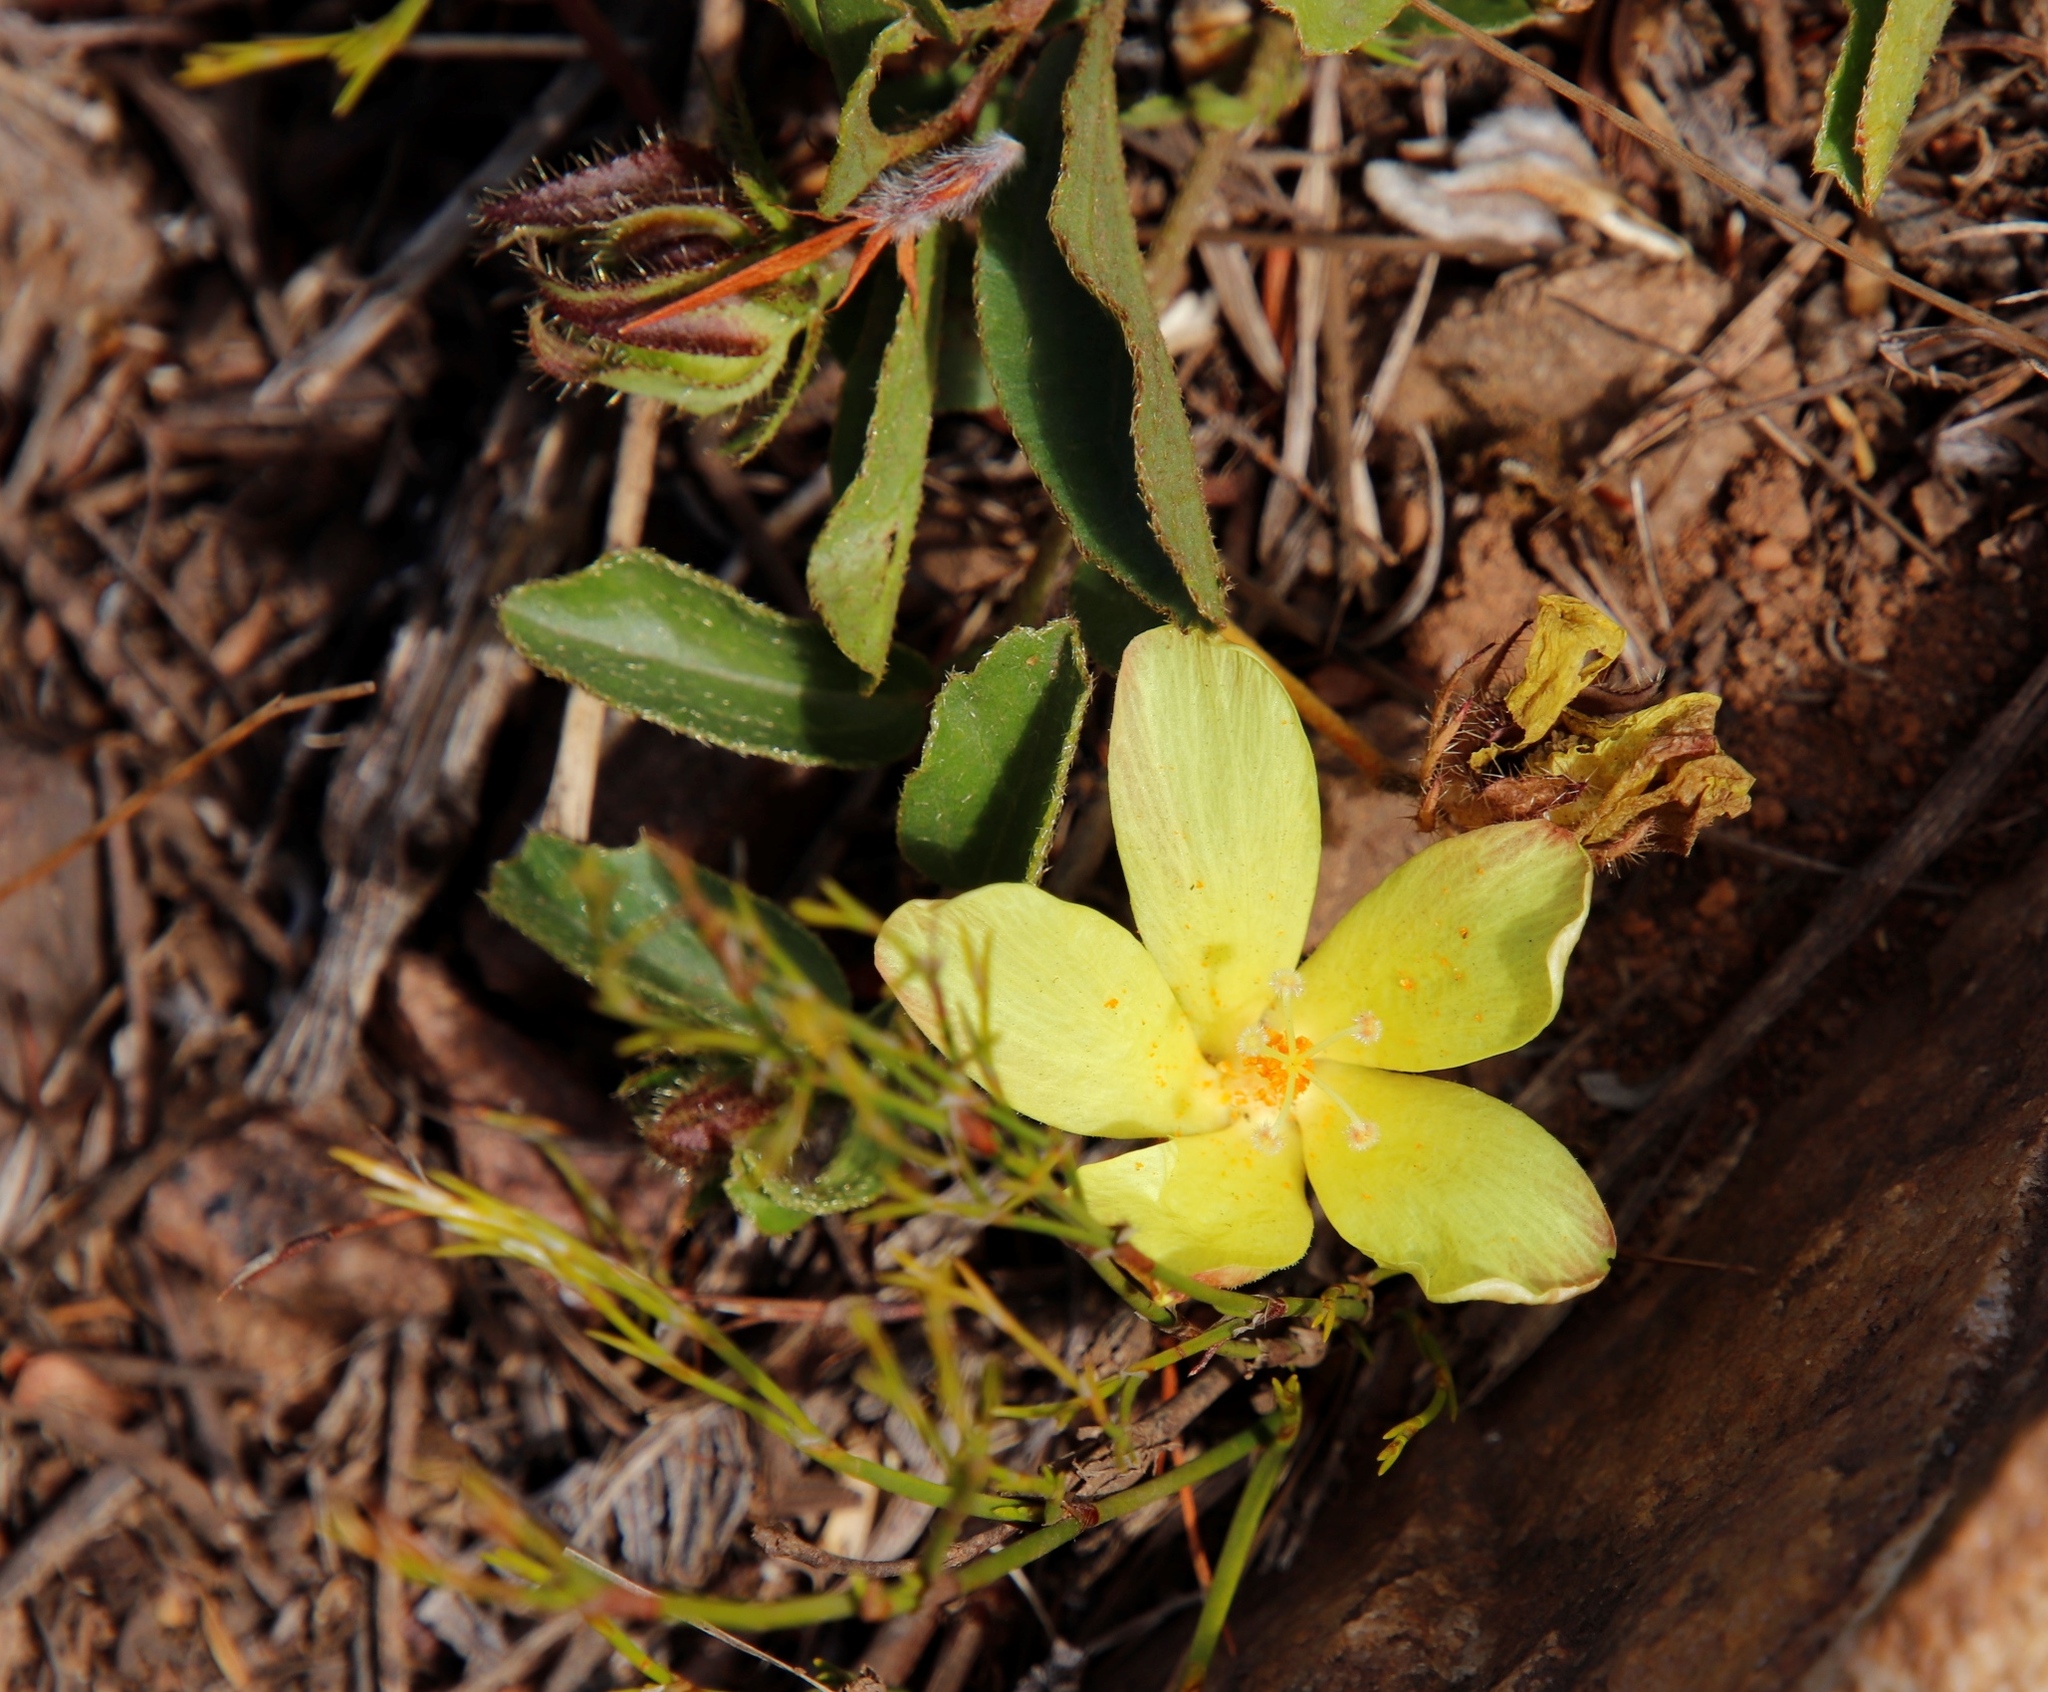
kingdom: Plantae
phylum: Tracheophyta
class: Magnoliopsida
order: Malvales
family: Malvaceae
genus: Hibiscus
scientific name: Hibiscus aethiopicus
